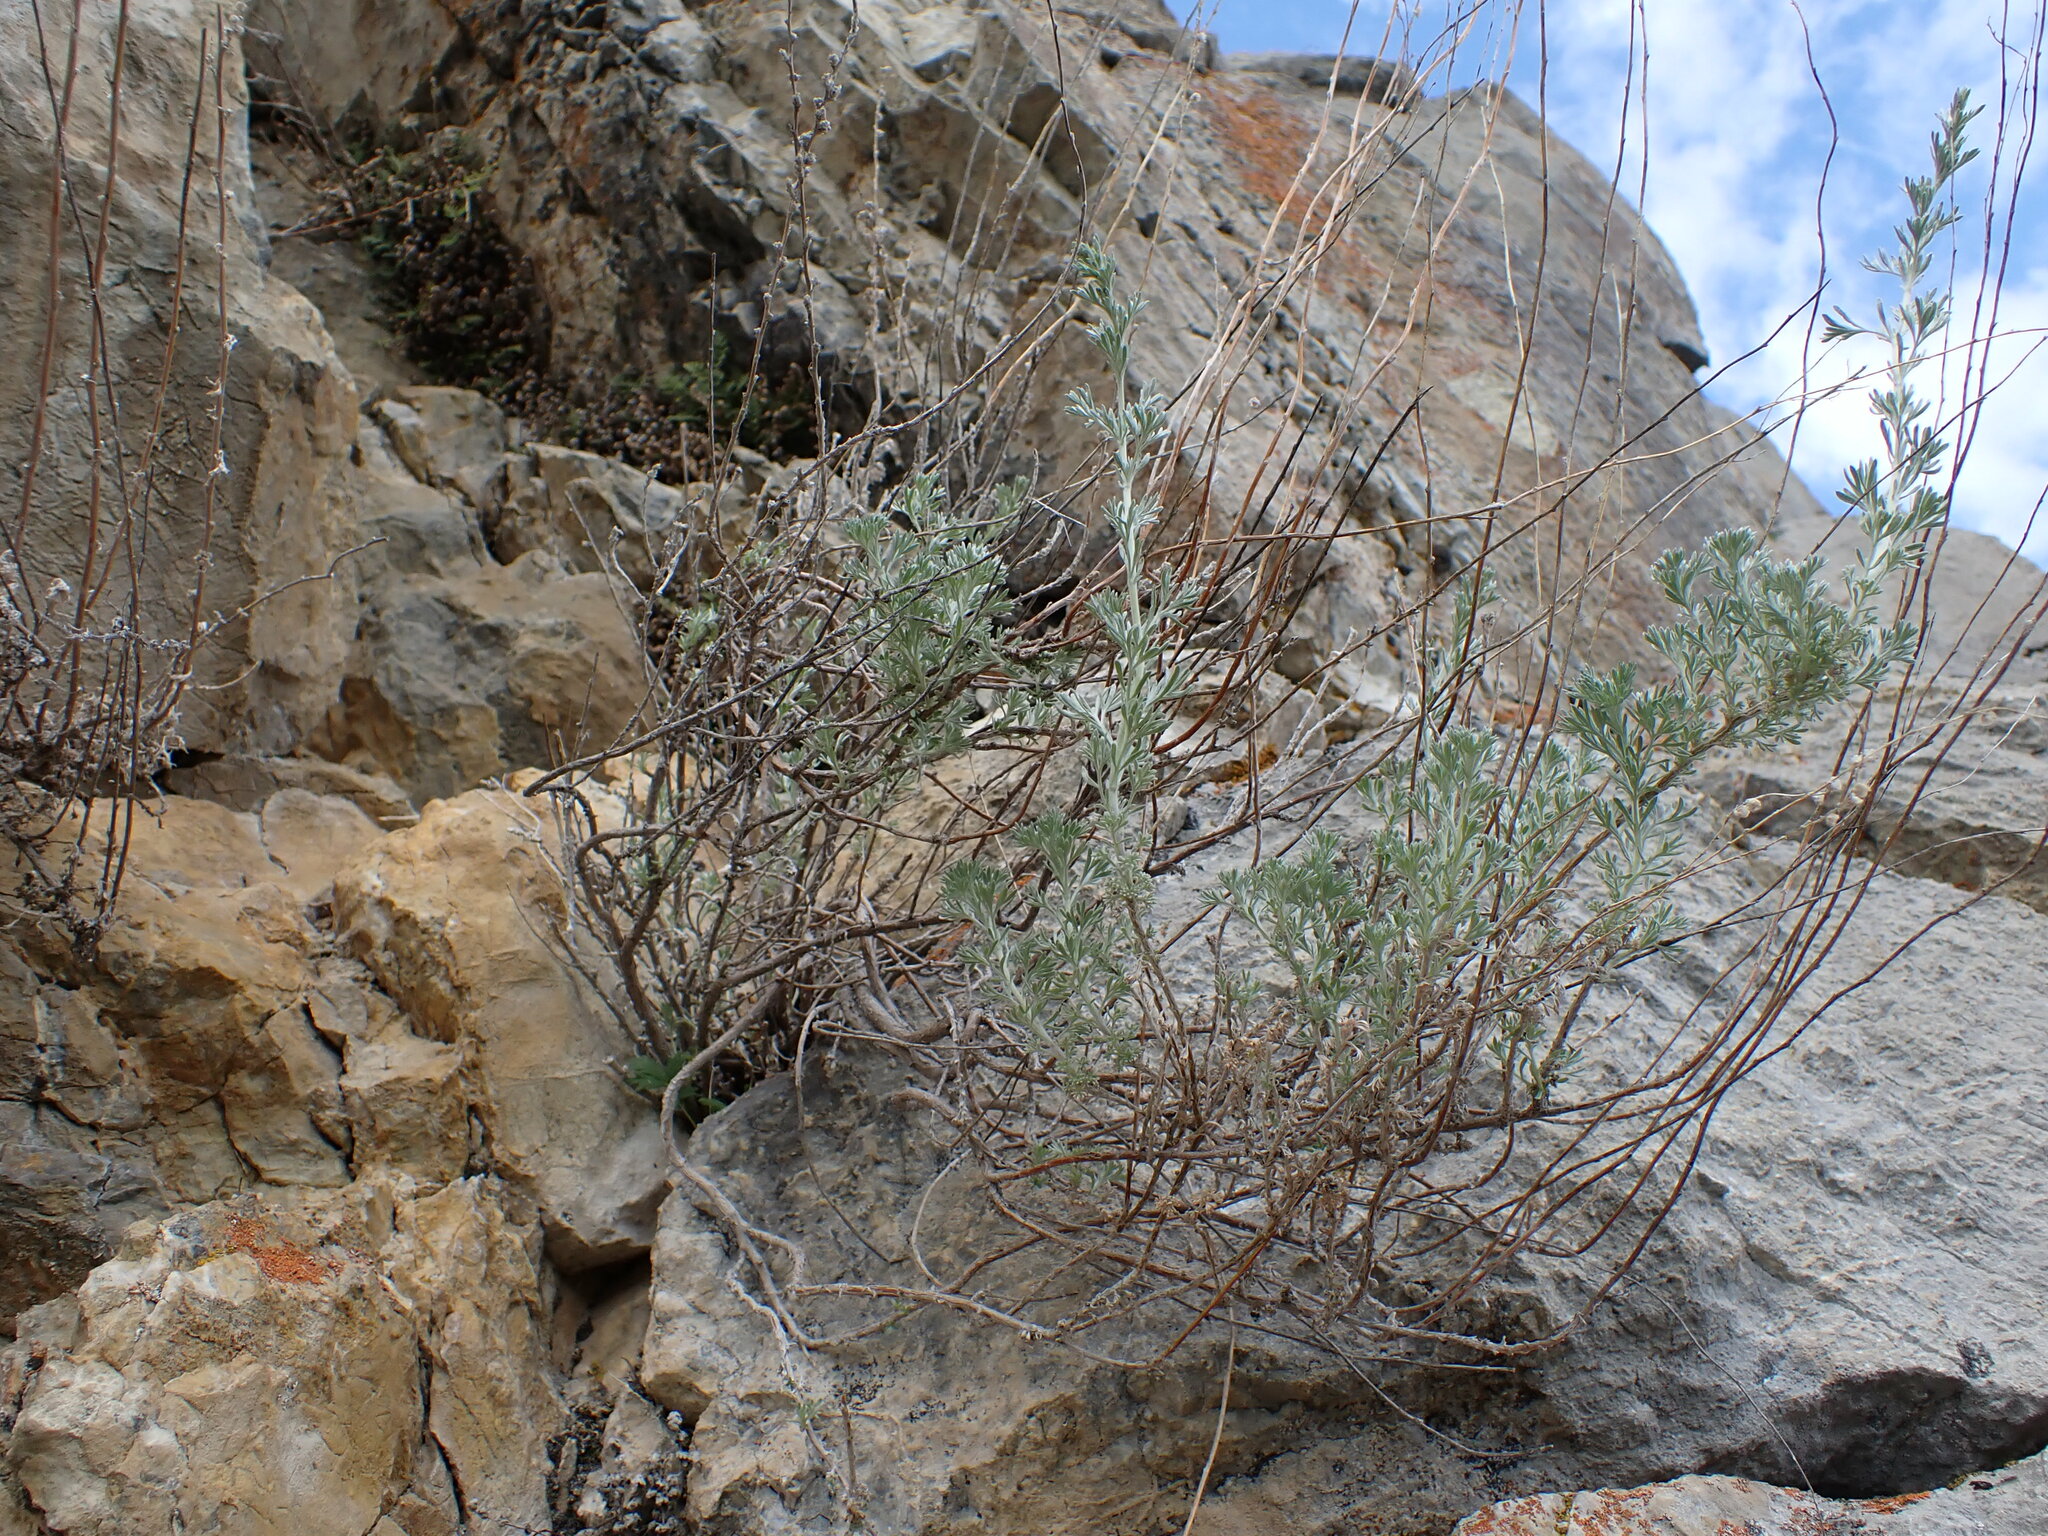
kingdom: Plantae
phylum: Tracheophyta
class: Magnoliopsida
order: Asterales
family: Asteraceae
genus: Artemisia
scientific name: Artemisia frigida
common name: Prairie sagewort
